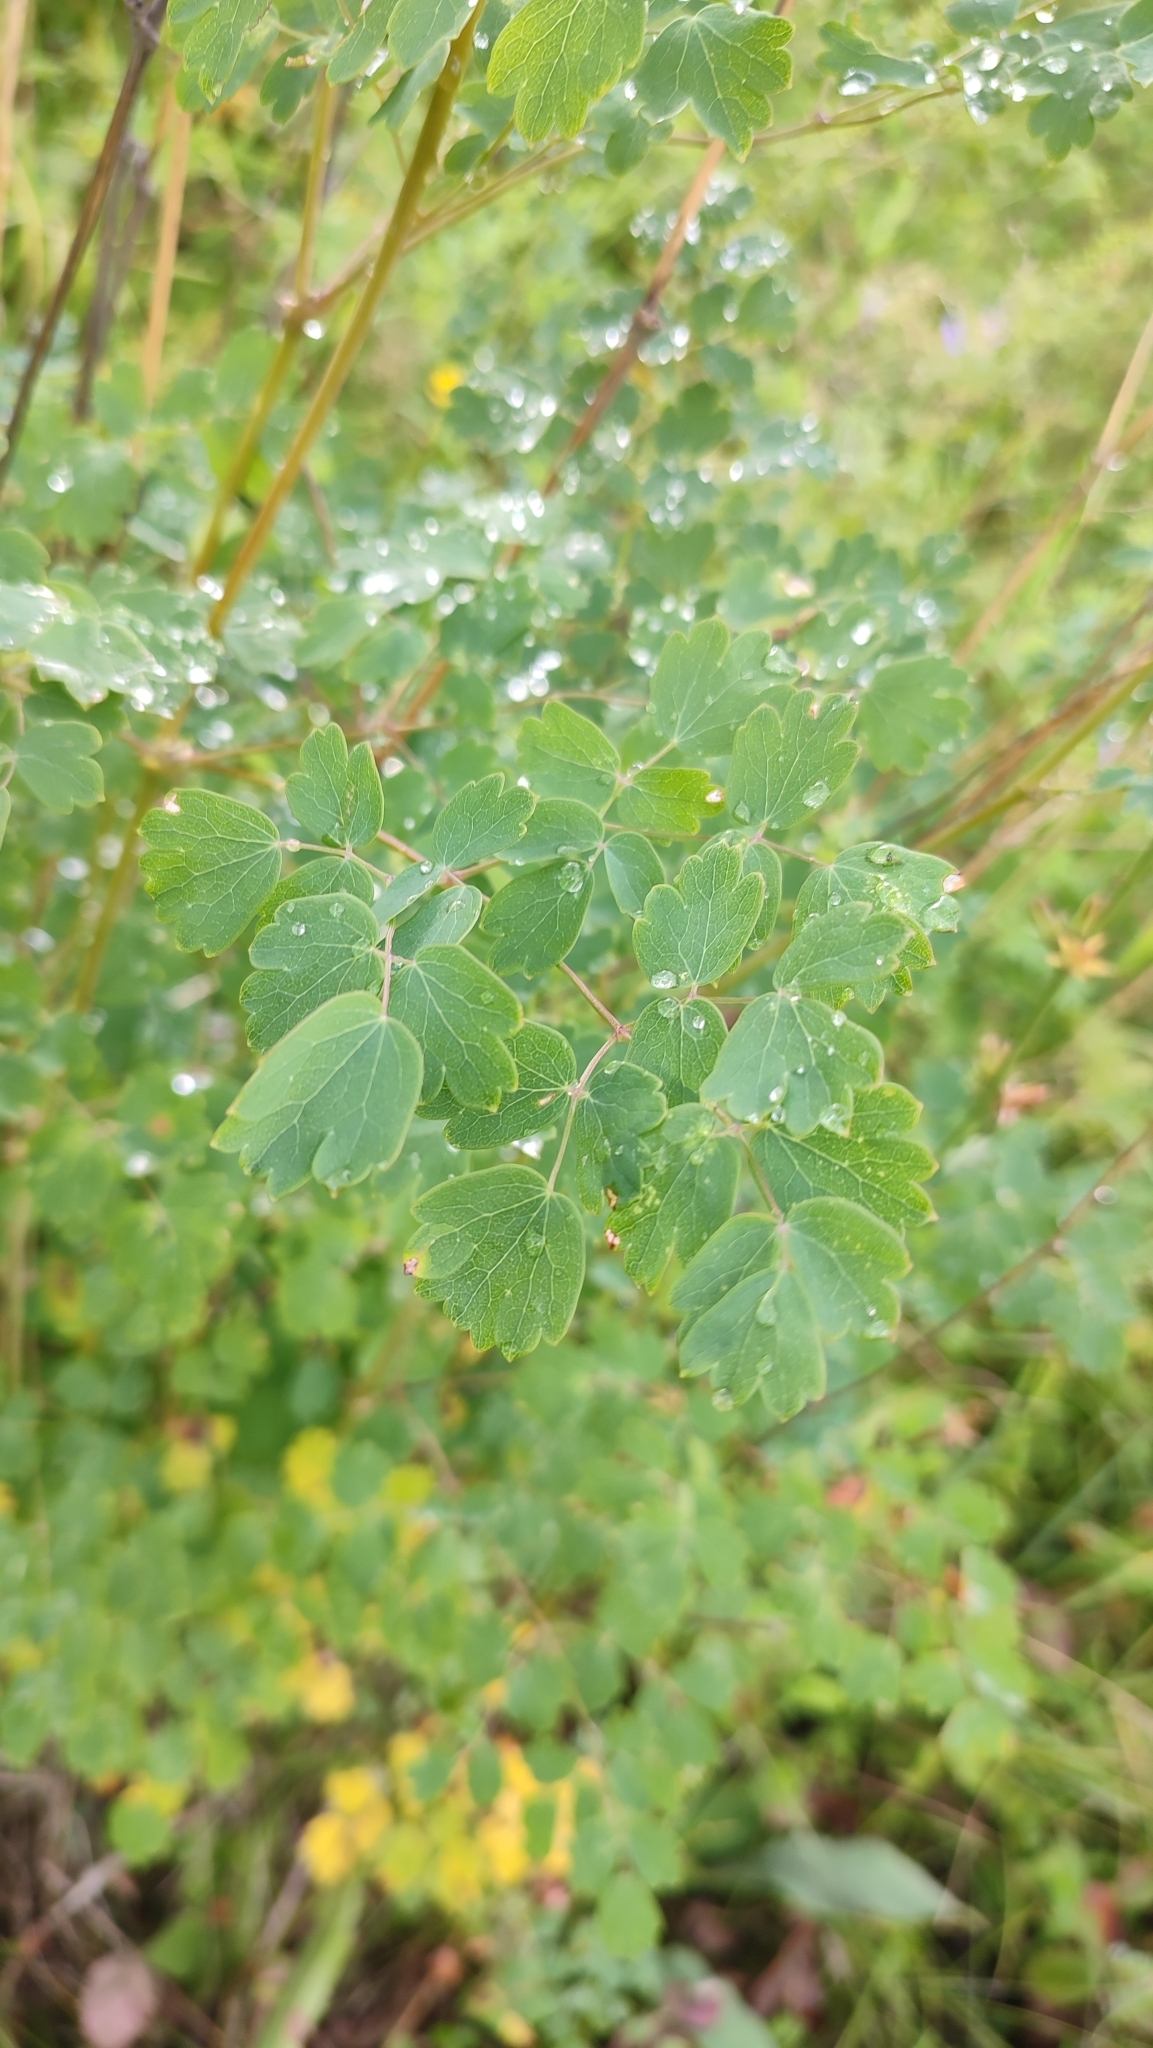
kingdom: Plantae
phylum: Tracheophyta
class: Magnoliopsida
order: Ranunculales
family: Ranunculaceae
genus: Thalictrum
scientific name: Thalictrum minus
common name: Lesser meadow-rue
